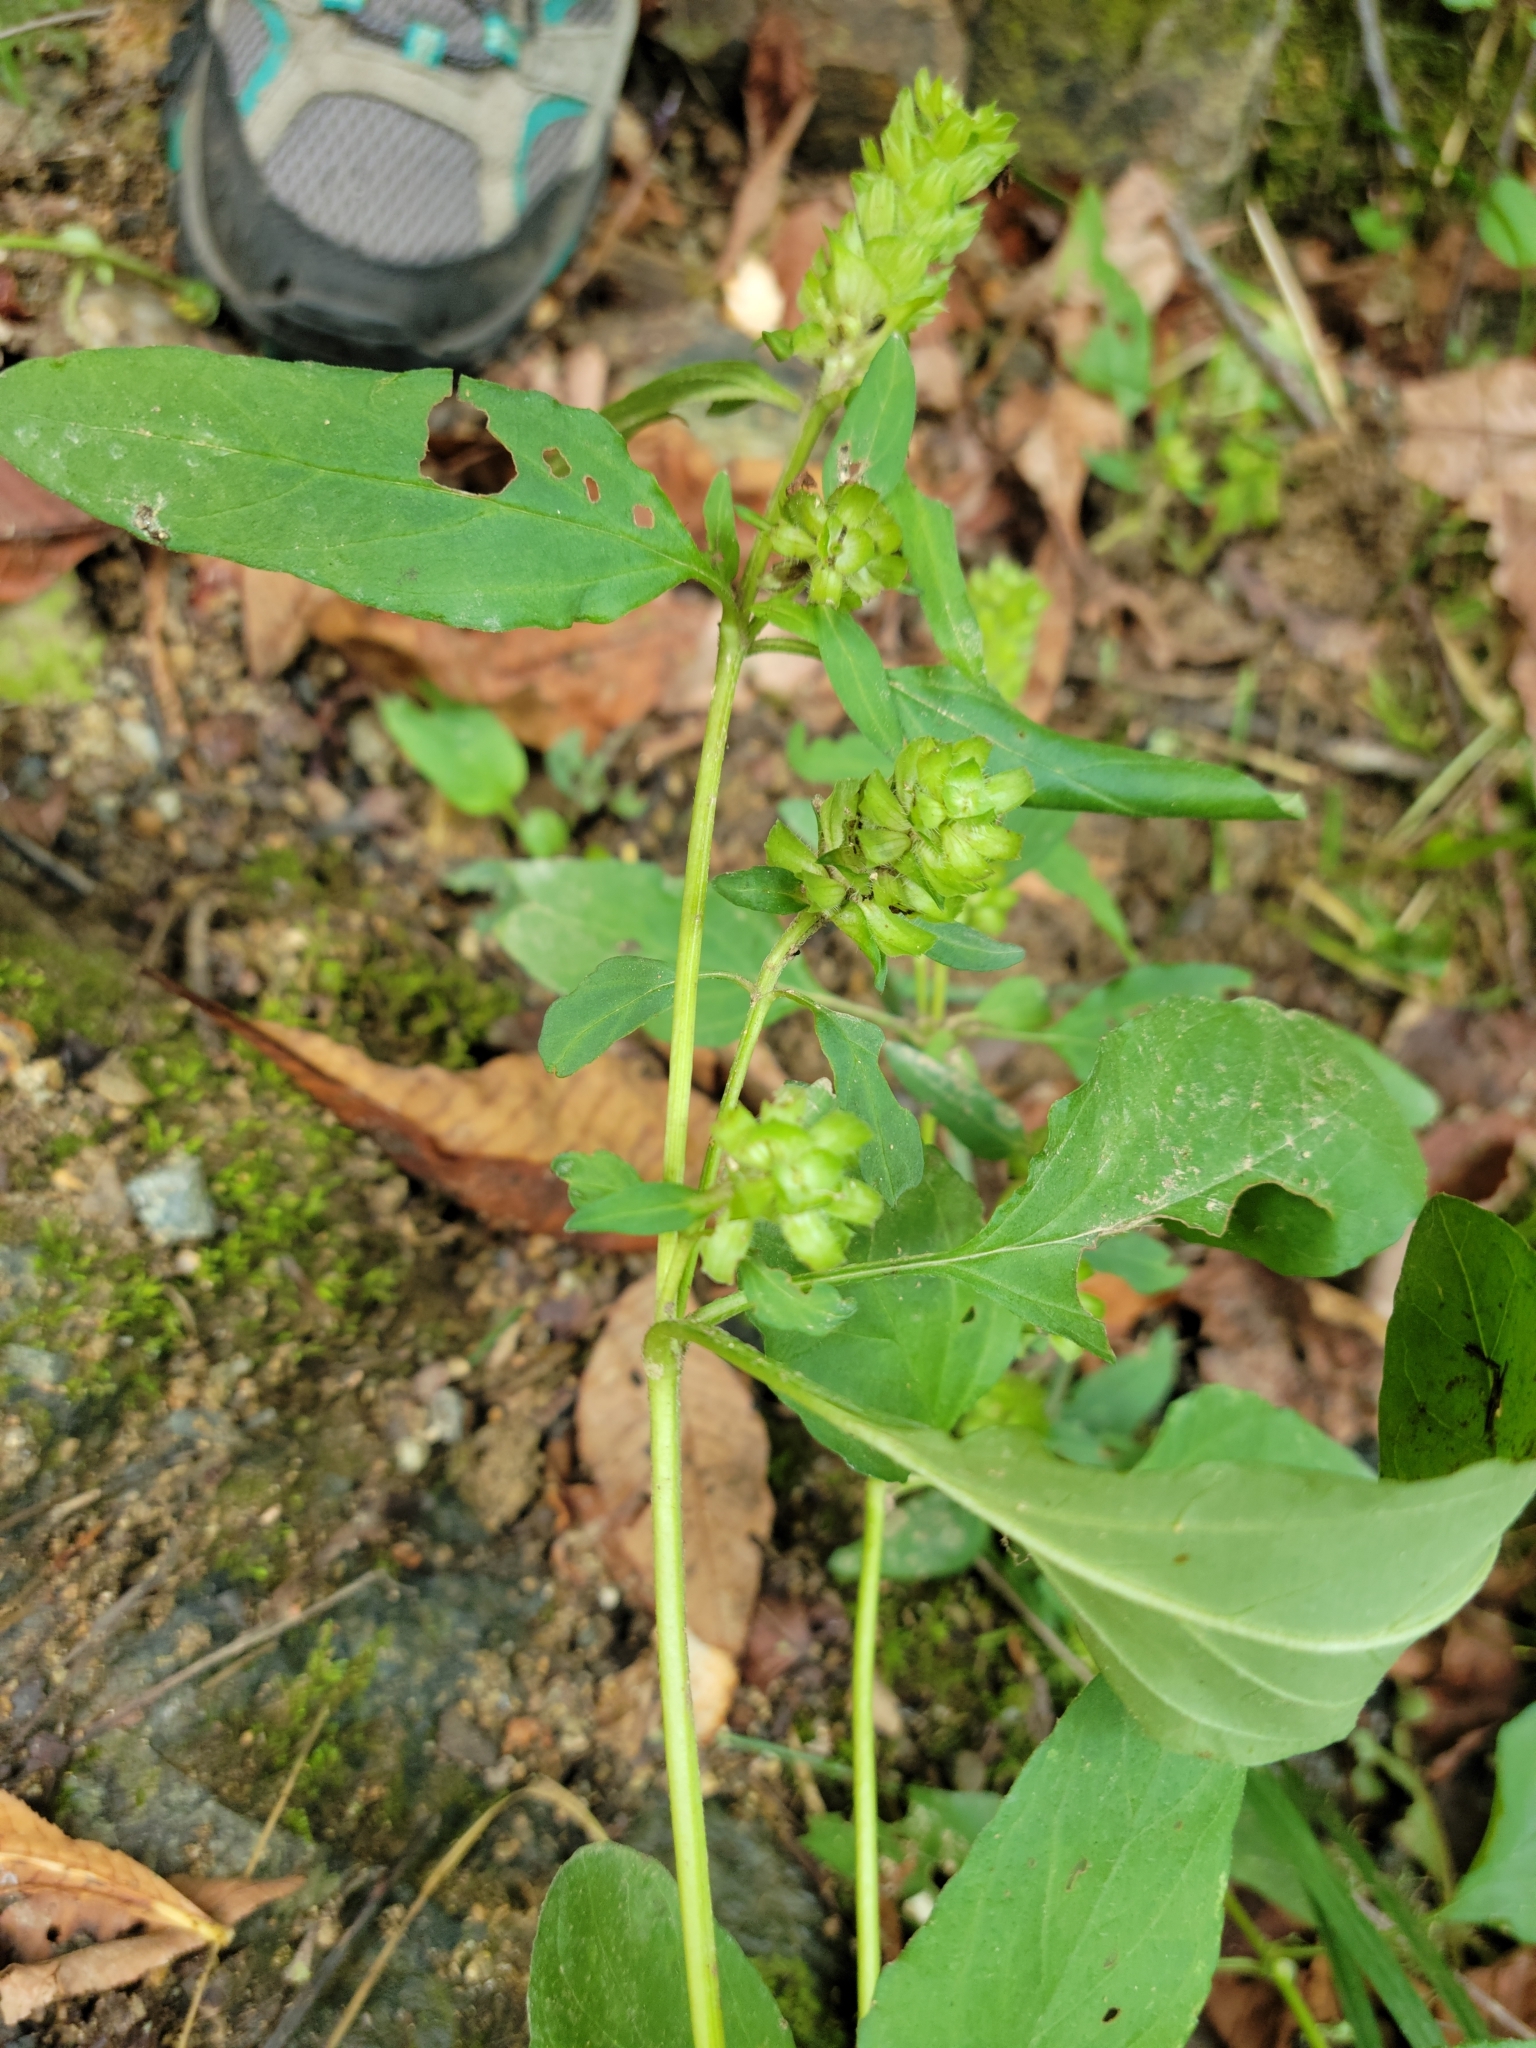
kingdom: Plantae
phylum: Tracheophyta
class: Magnoliopsida
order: Lamiales
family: Lamiaceae
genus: Prunella
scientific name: Prunella vulgaris
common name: Heal-all
